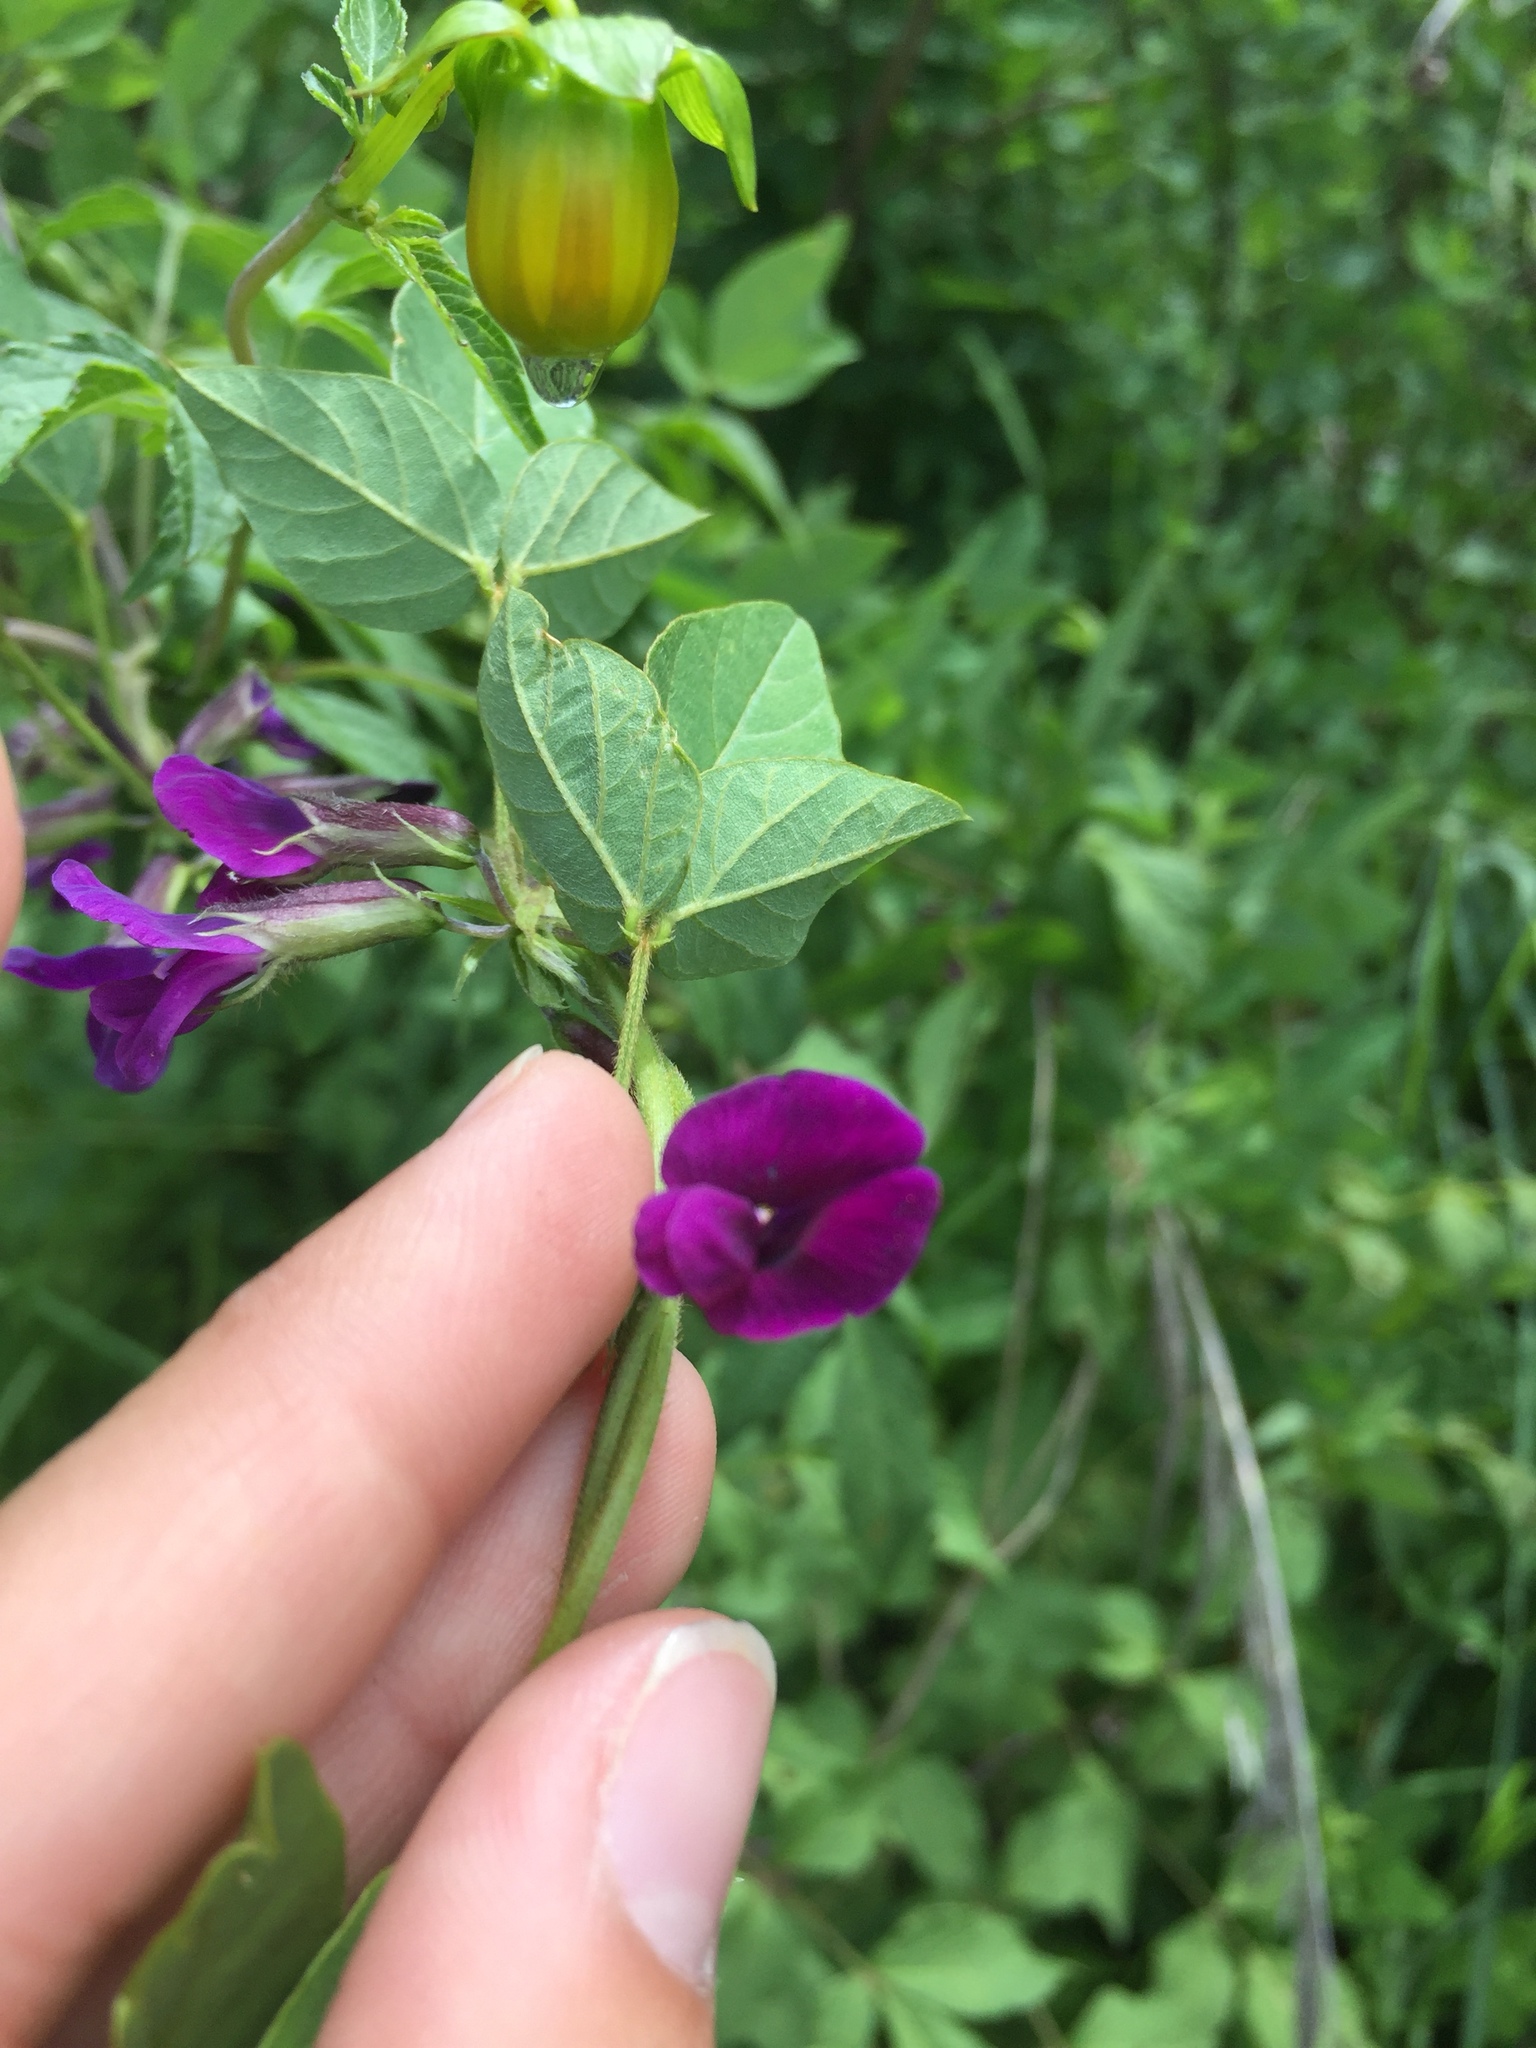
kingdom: Plantae
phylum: Tracheophyta
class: Magnoliopsida
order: Fabales
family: Fabaceae
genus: Cologania
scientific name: Cologania biloba
